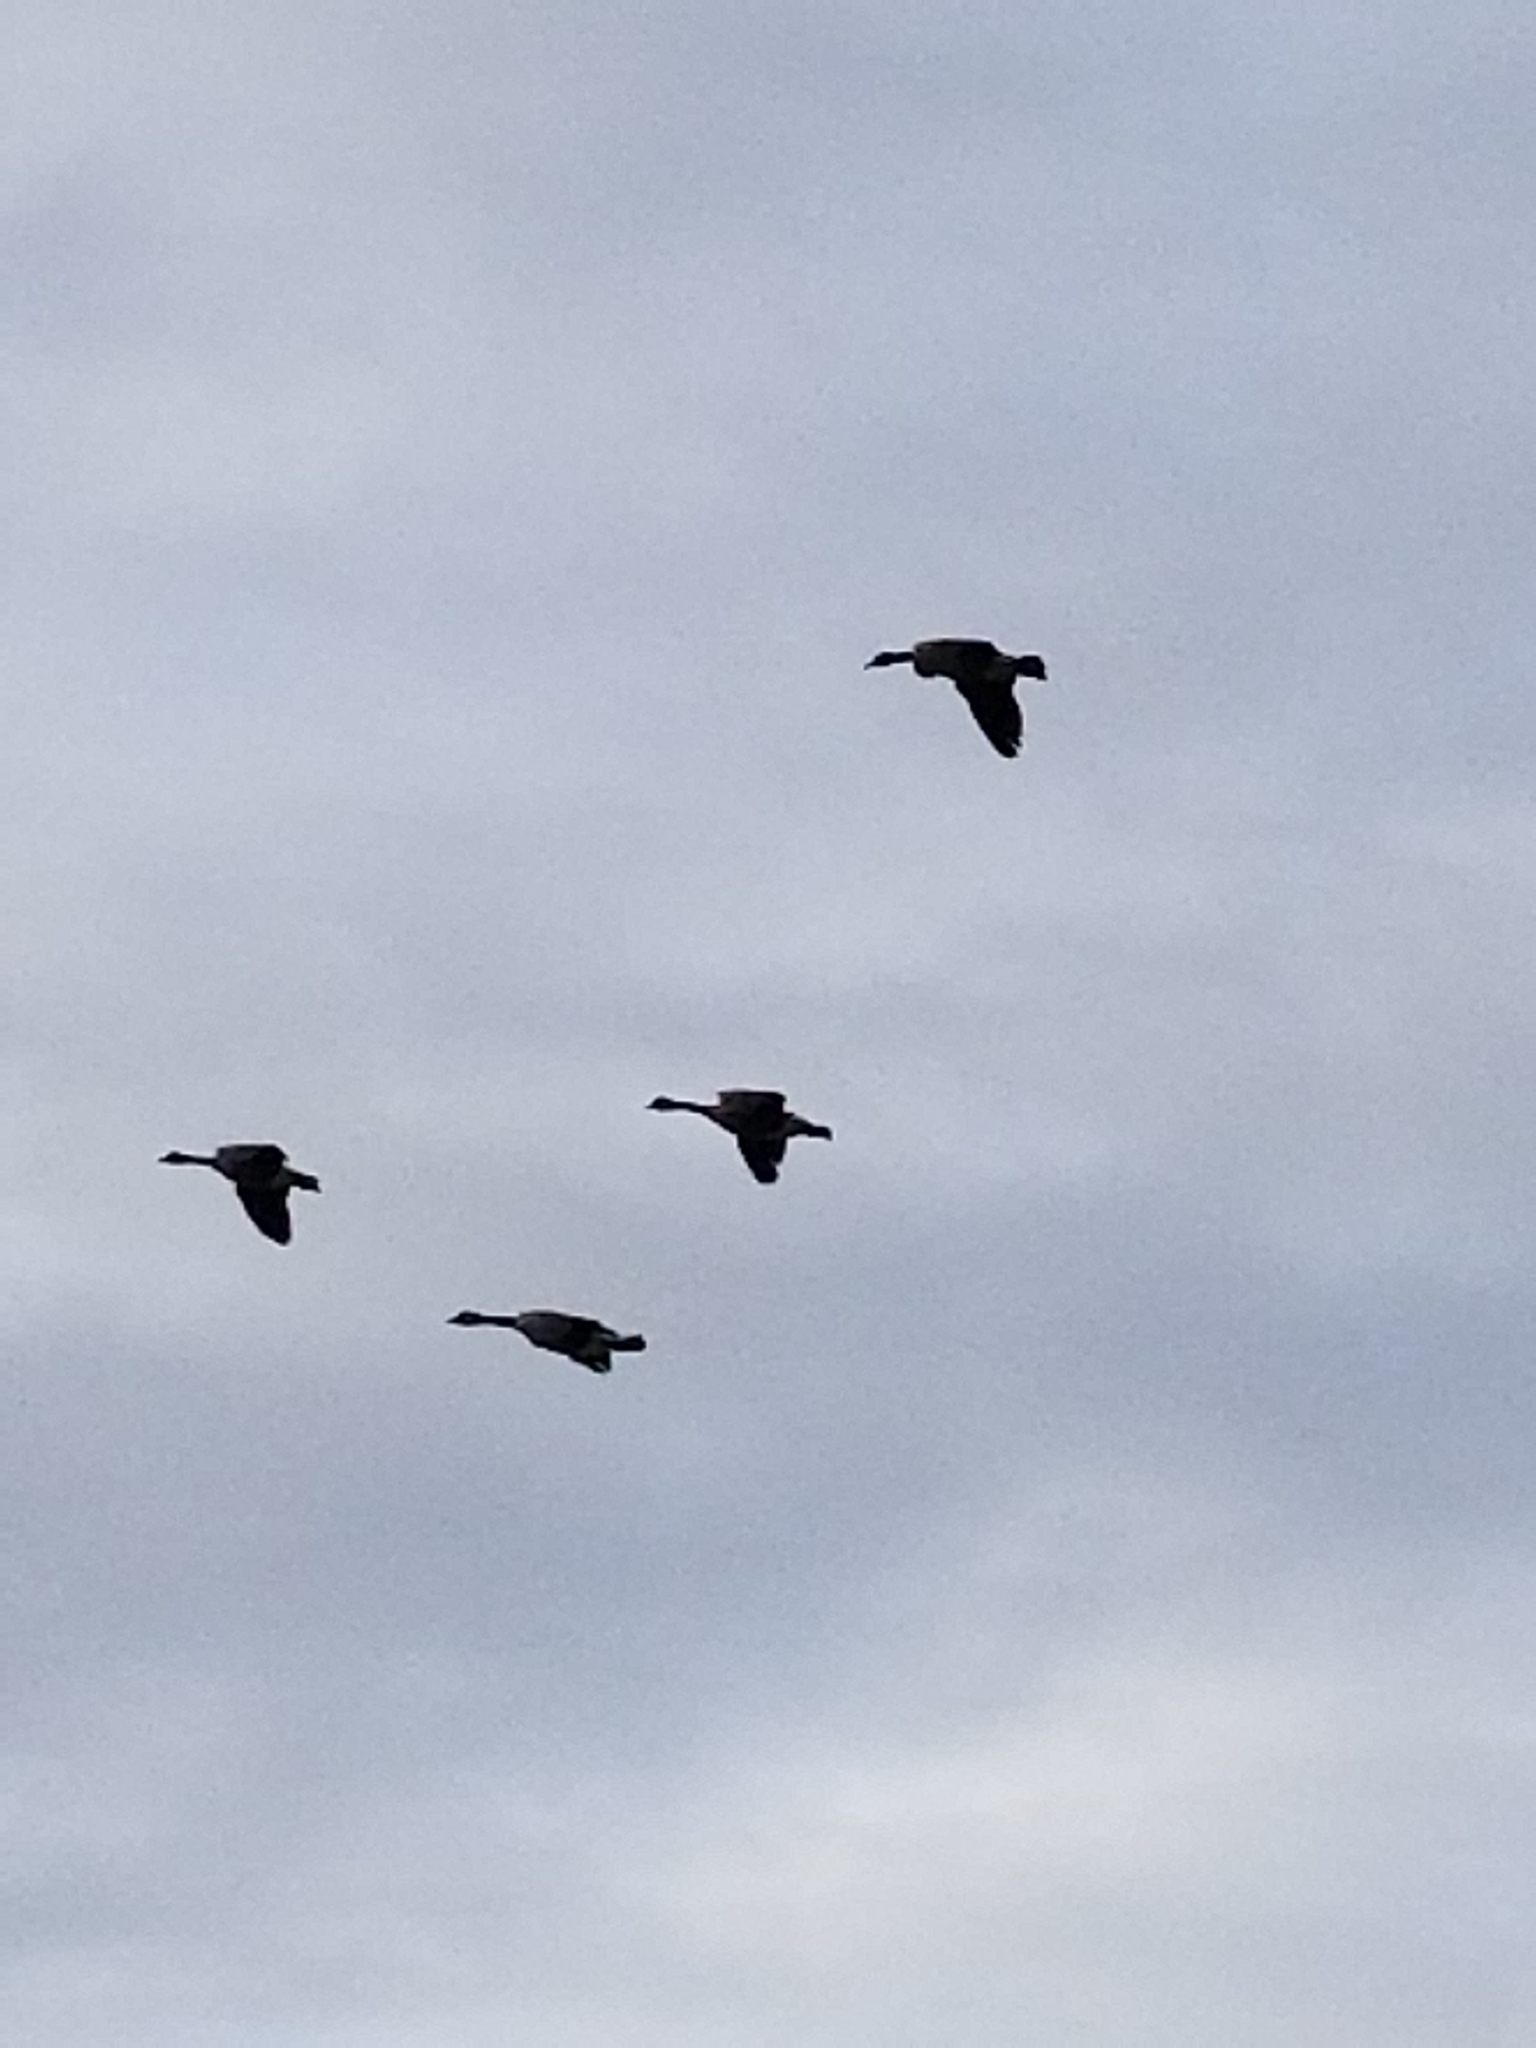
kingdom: Animalia
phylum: Chordata
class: Aves
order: Anseriformes
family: Anatidae
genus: Branta
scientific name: Branta canadensis
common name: Canada goose
